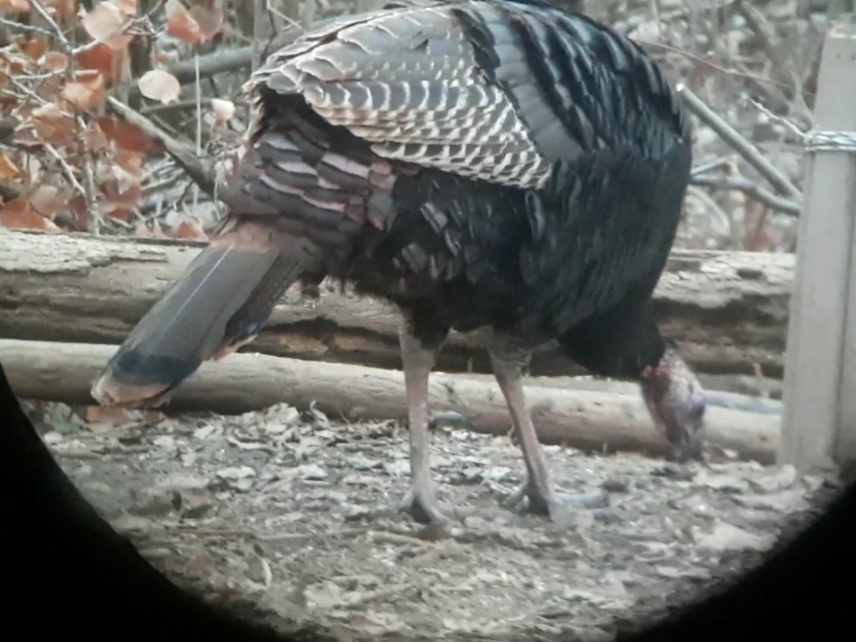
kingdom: Animalia
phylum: Chordata
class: Aves
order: Galliformes
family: Phasianidae
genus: Meleagris
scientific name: Meleagris gallopavo
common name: Wild turkey
